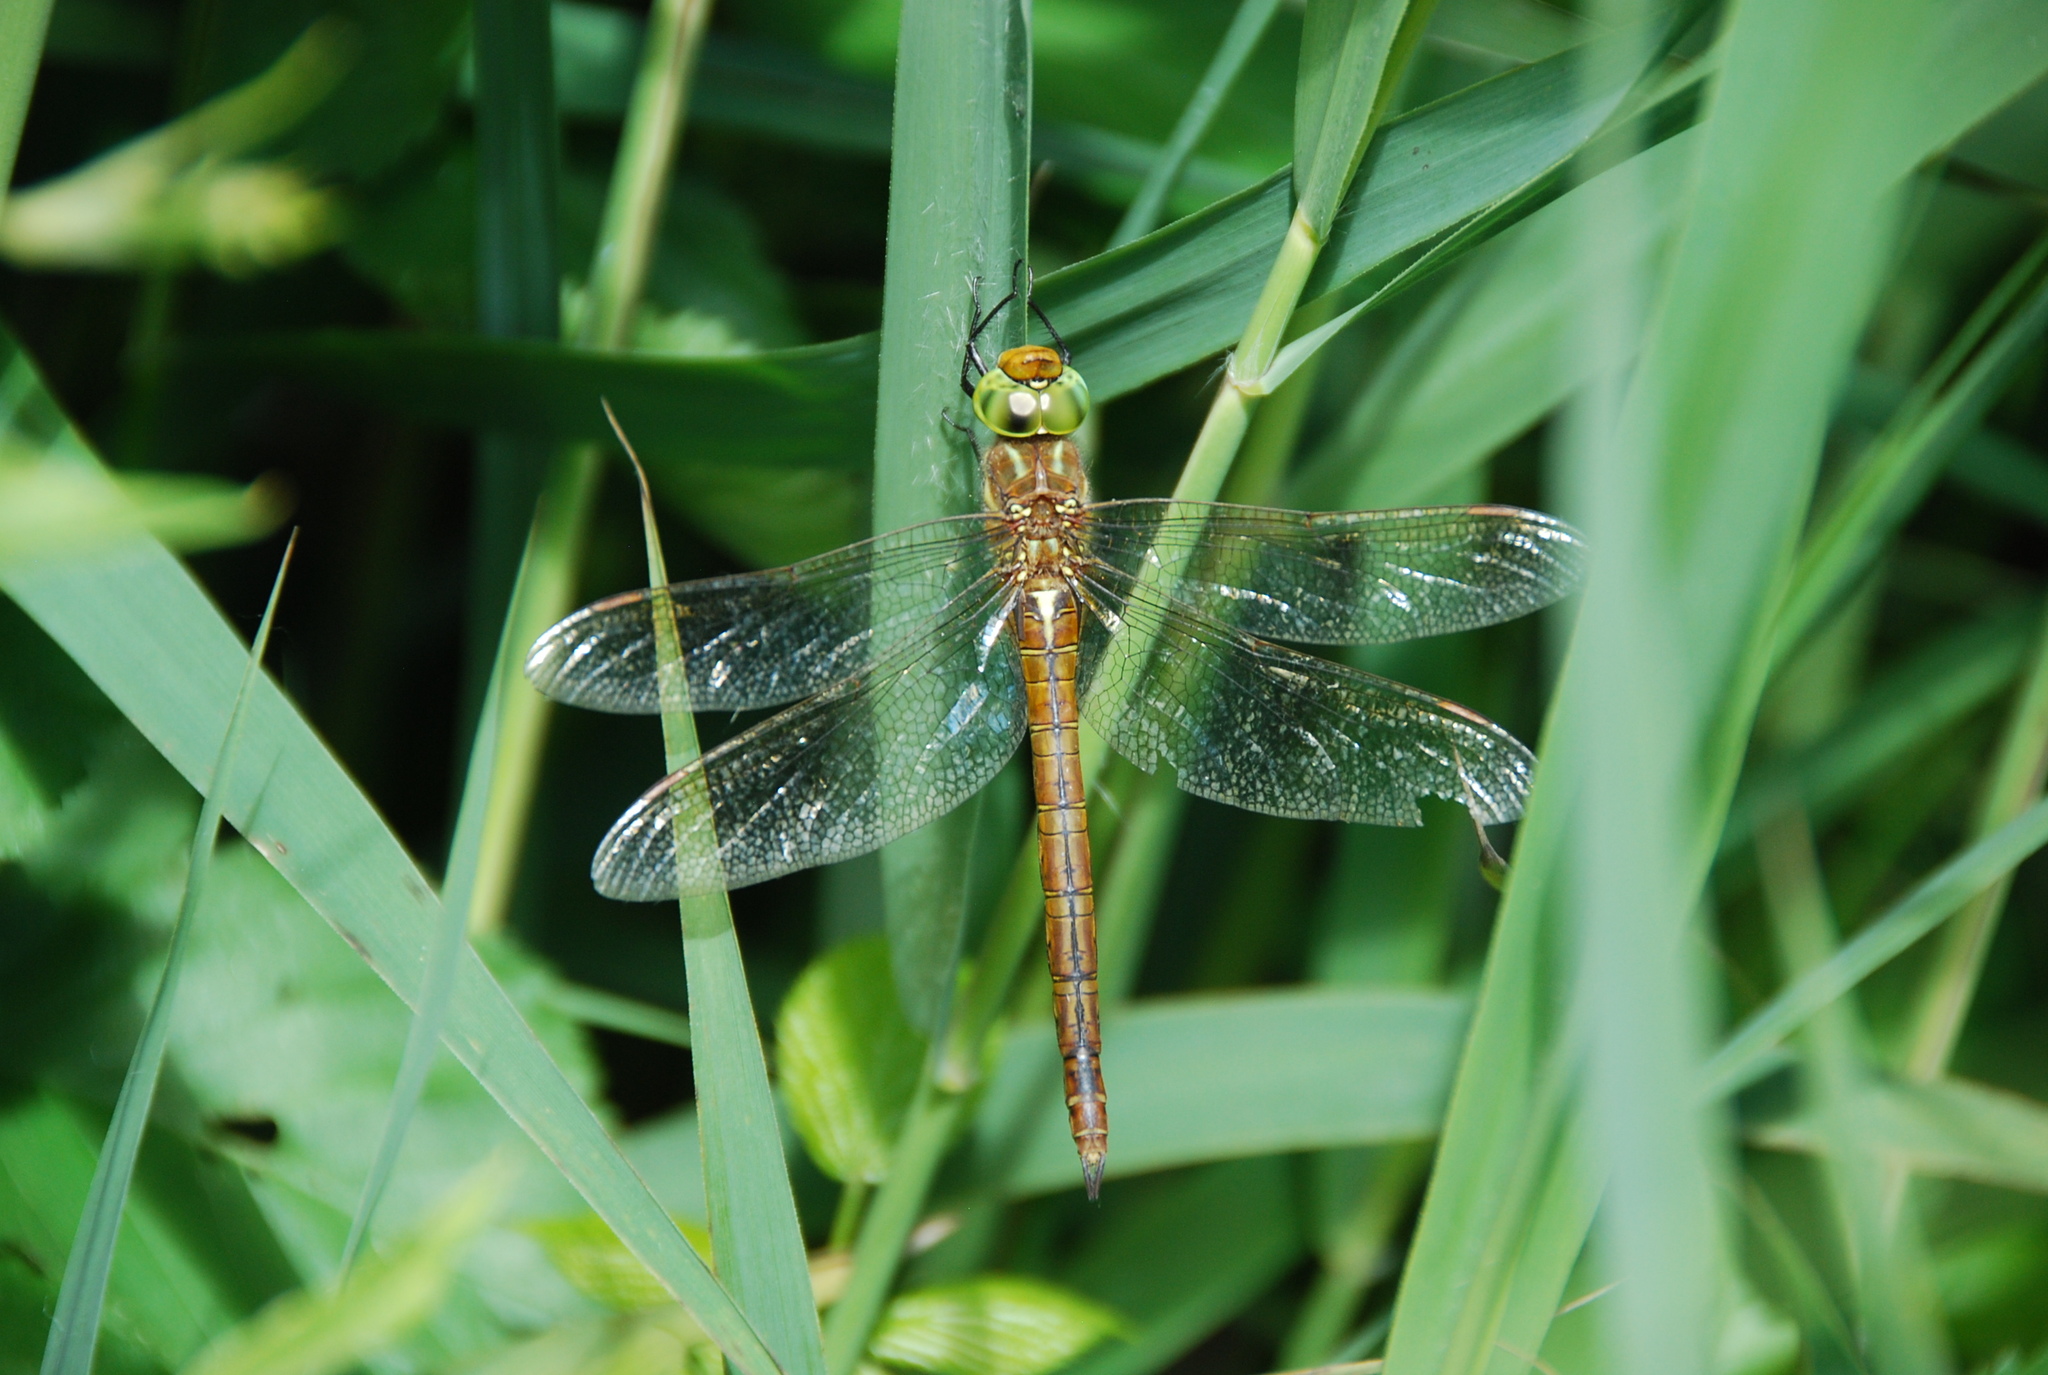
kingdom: Animalia
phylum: Arthropoda
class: Insecta
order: Odonata
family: Aeshnidae
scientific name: Aeshnidae
